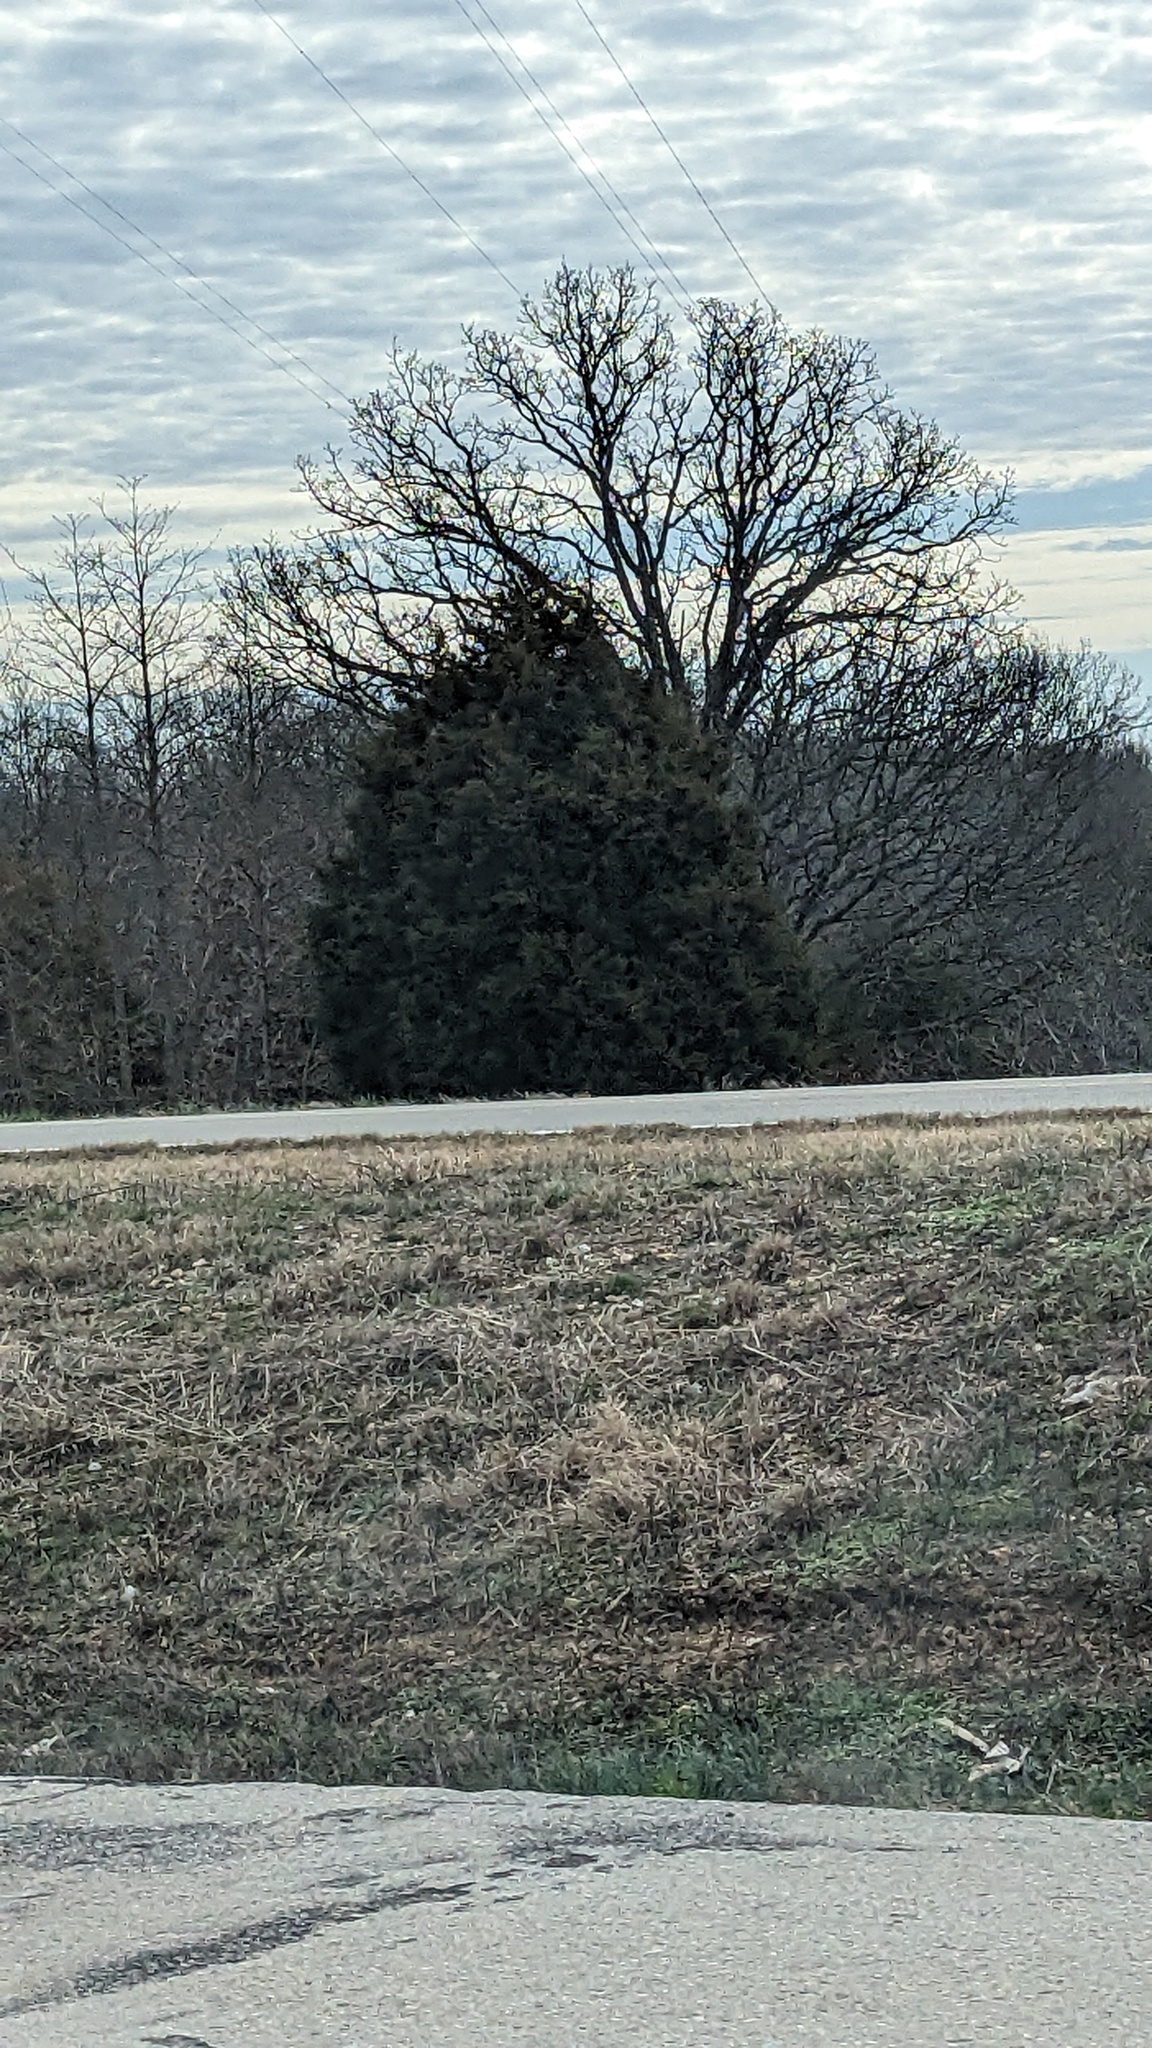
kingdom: Plantae
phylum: Tracheophyta
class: Pinopsida
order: Pinales
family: Cupressaceae
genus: Juniperus
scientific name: Juniperus virginiana
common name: Red juniper
